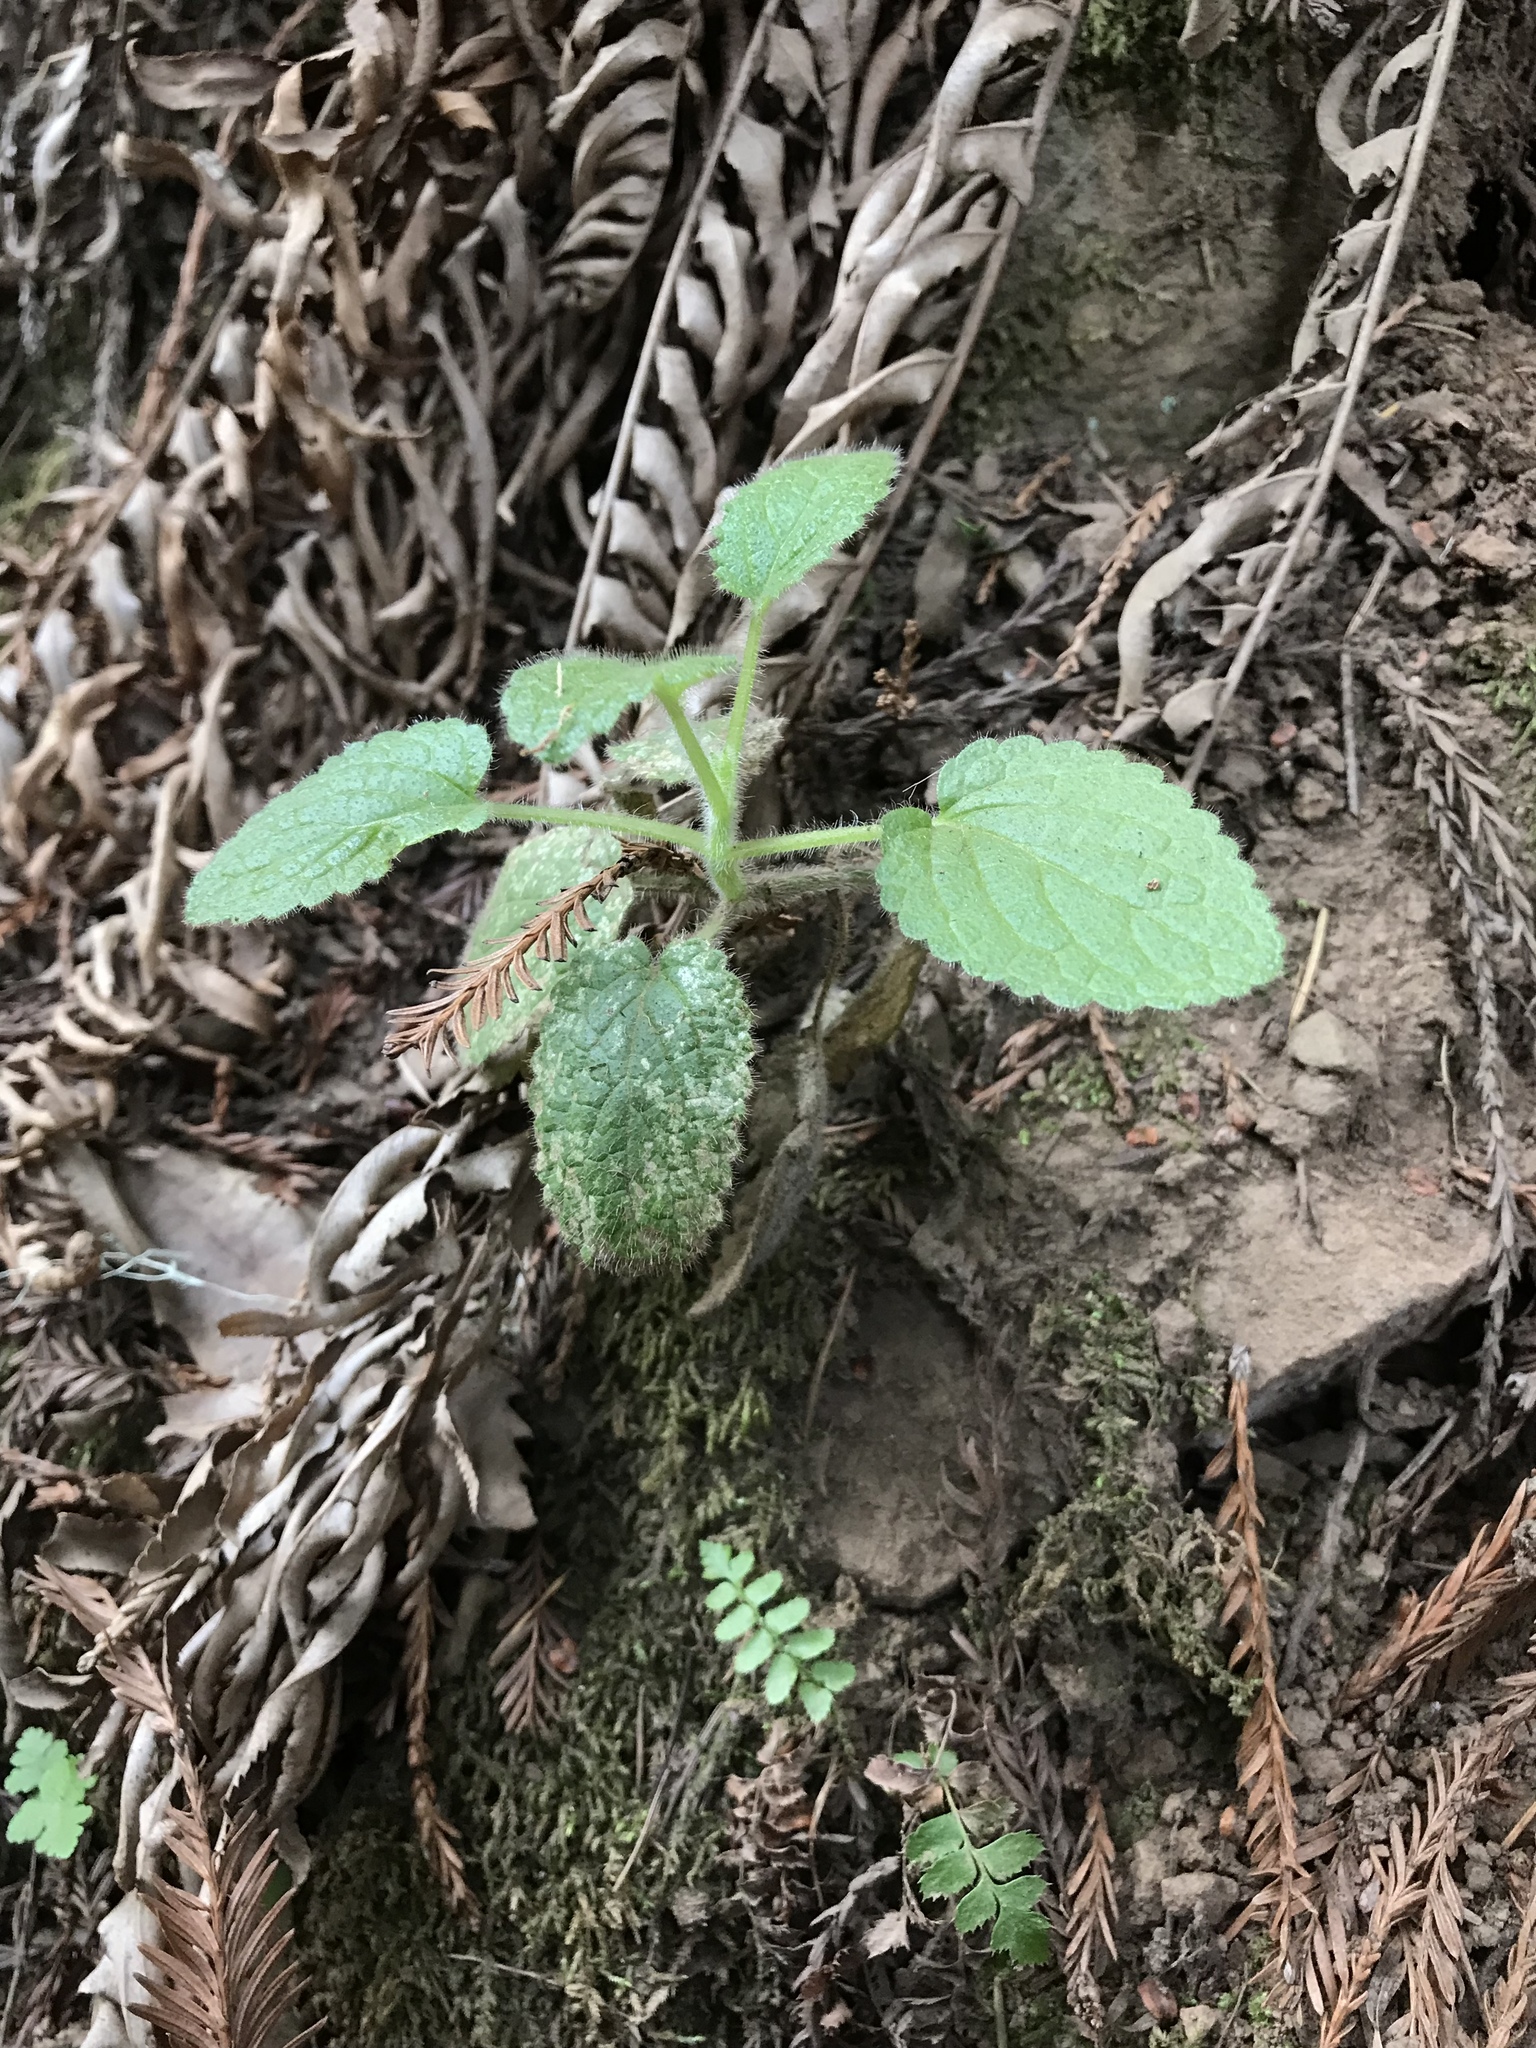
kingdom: Plantae
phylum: Tracheophyta
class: Polypodiopsida
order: Polypodiales
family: Dryopteridaceae
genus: Polystichum
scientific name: Polystichum munitum
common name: Western sword-fern
